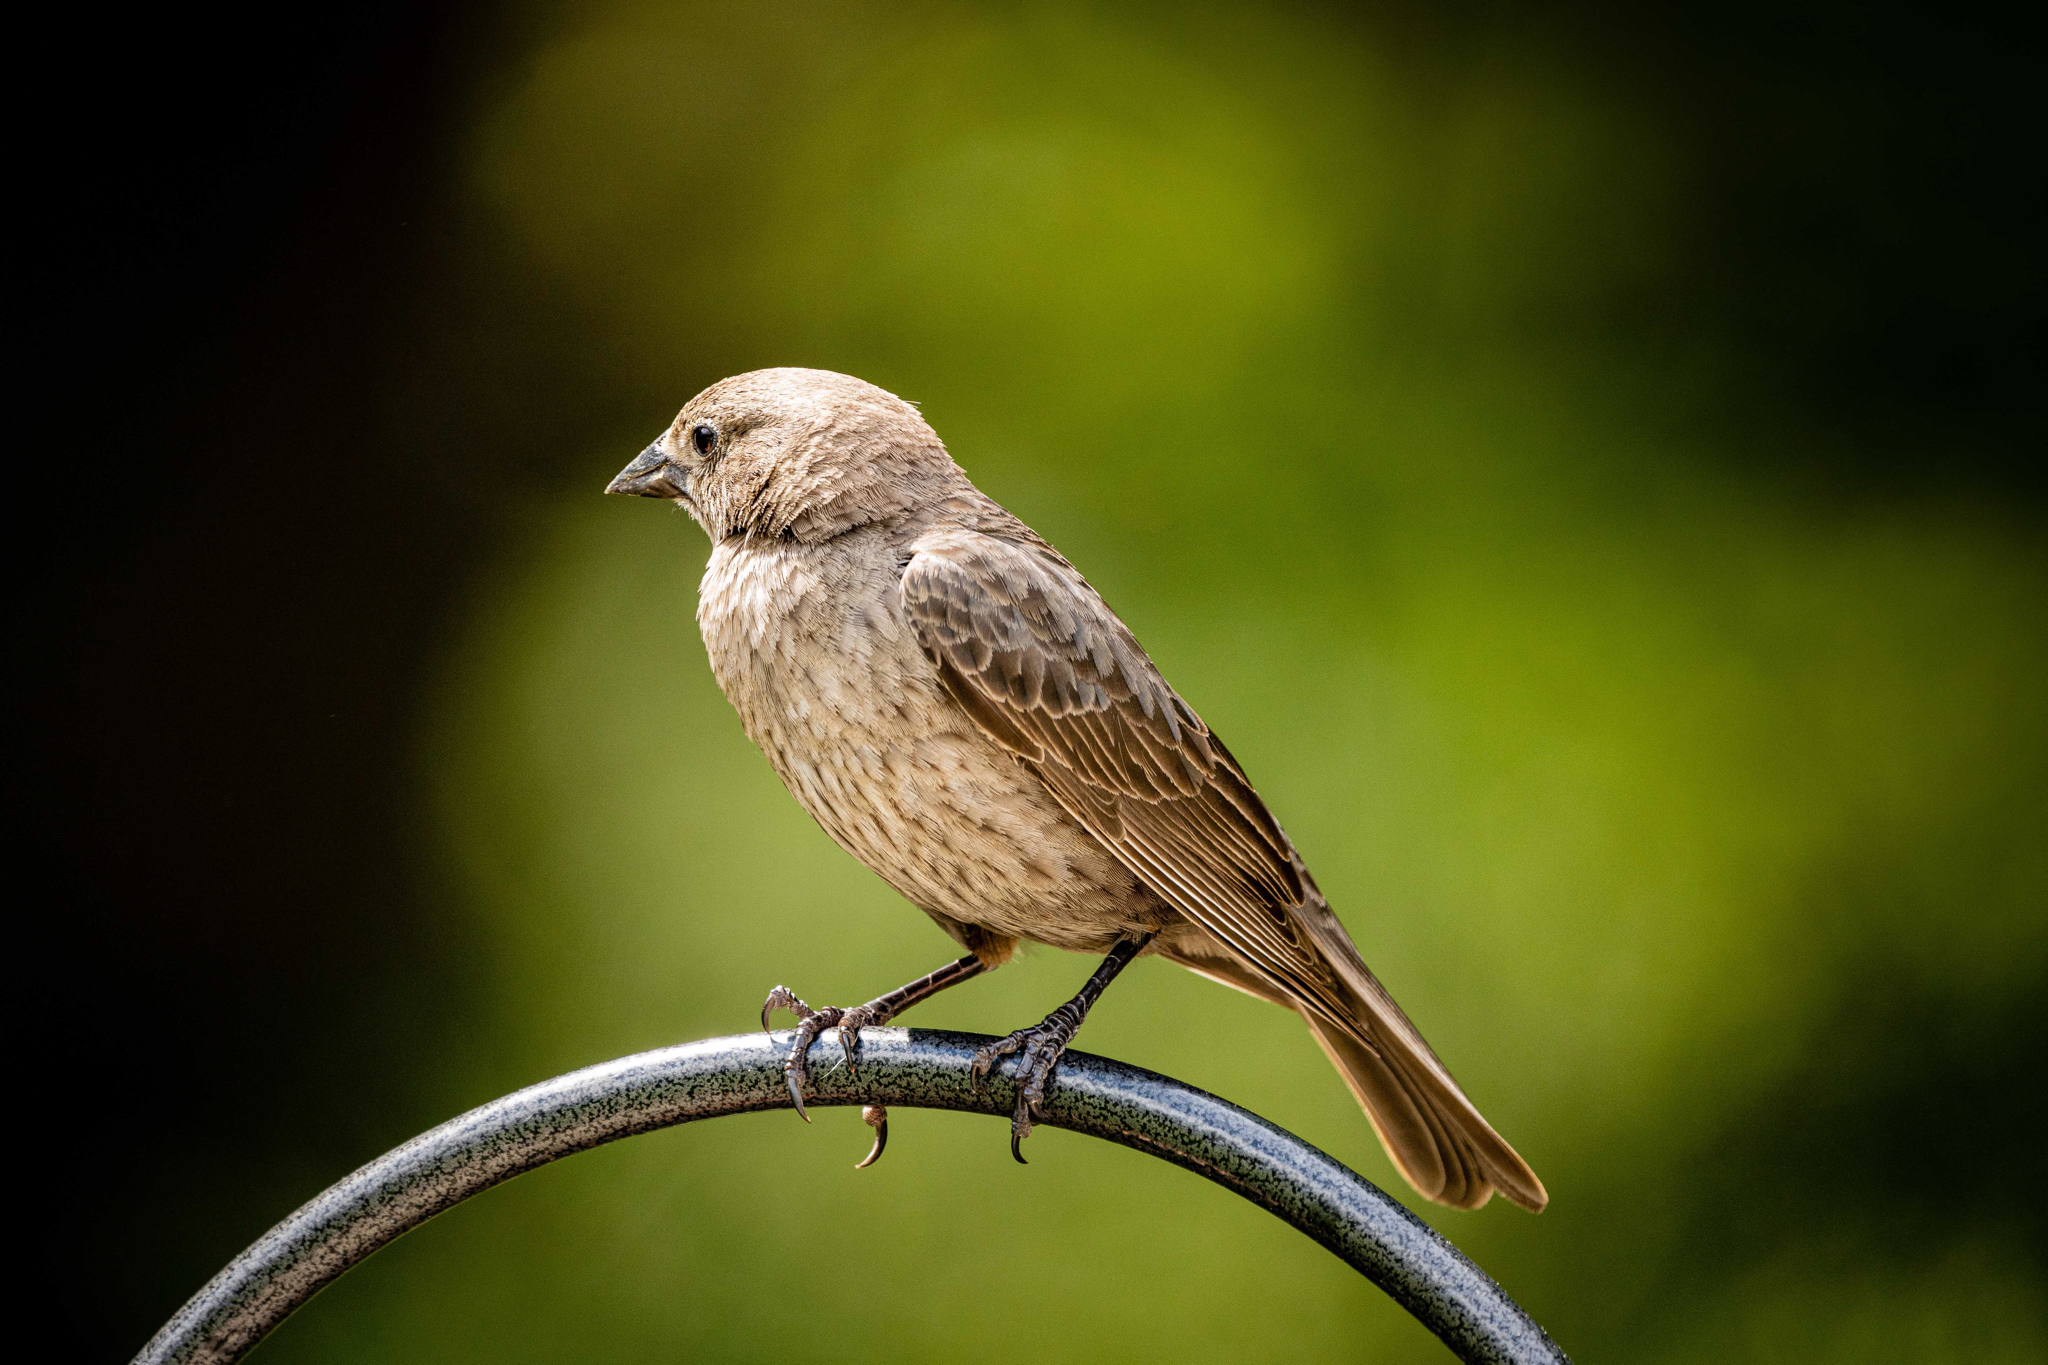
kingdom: Animalia
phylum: Chordata
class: Aves
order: Passeriformes
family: Icteridae
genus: Molothrus
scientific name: Molothrus ater
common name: Brown-headed cowbird
